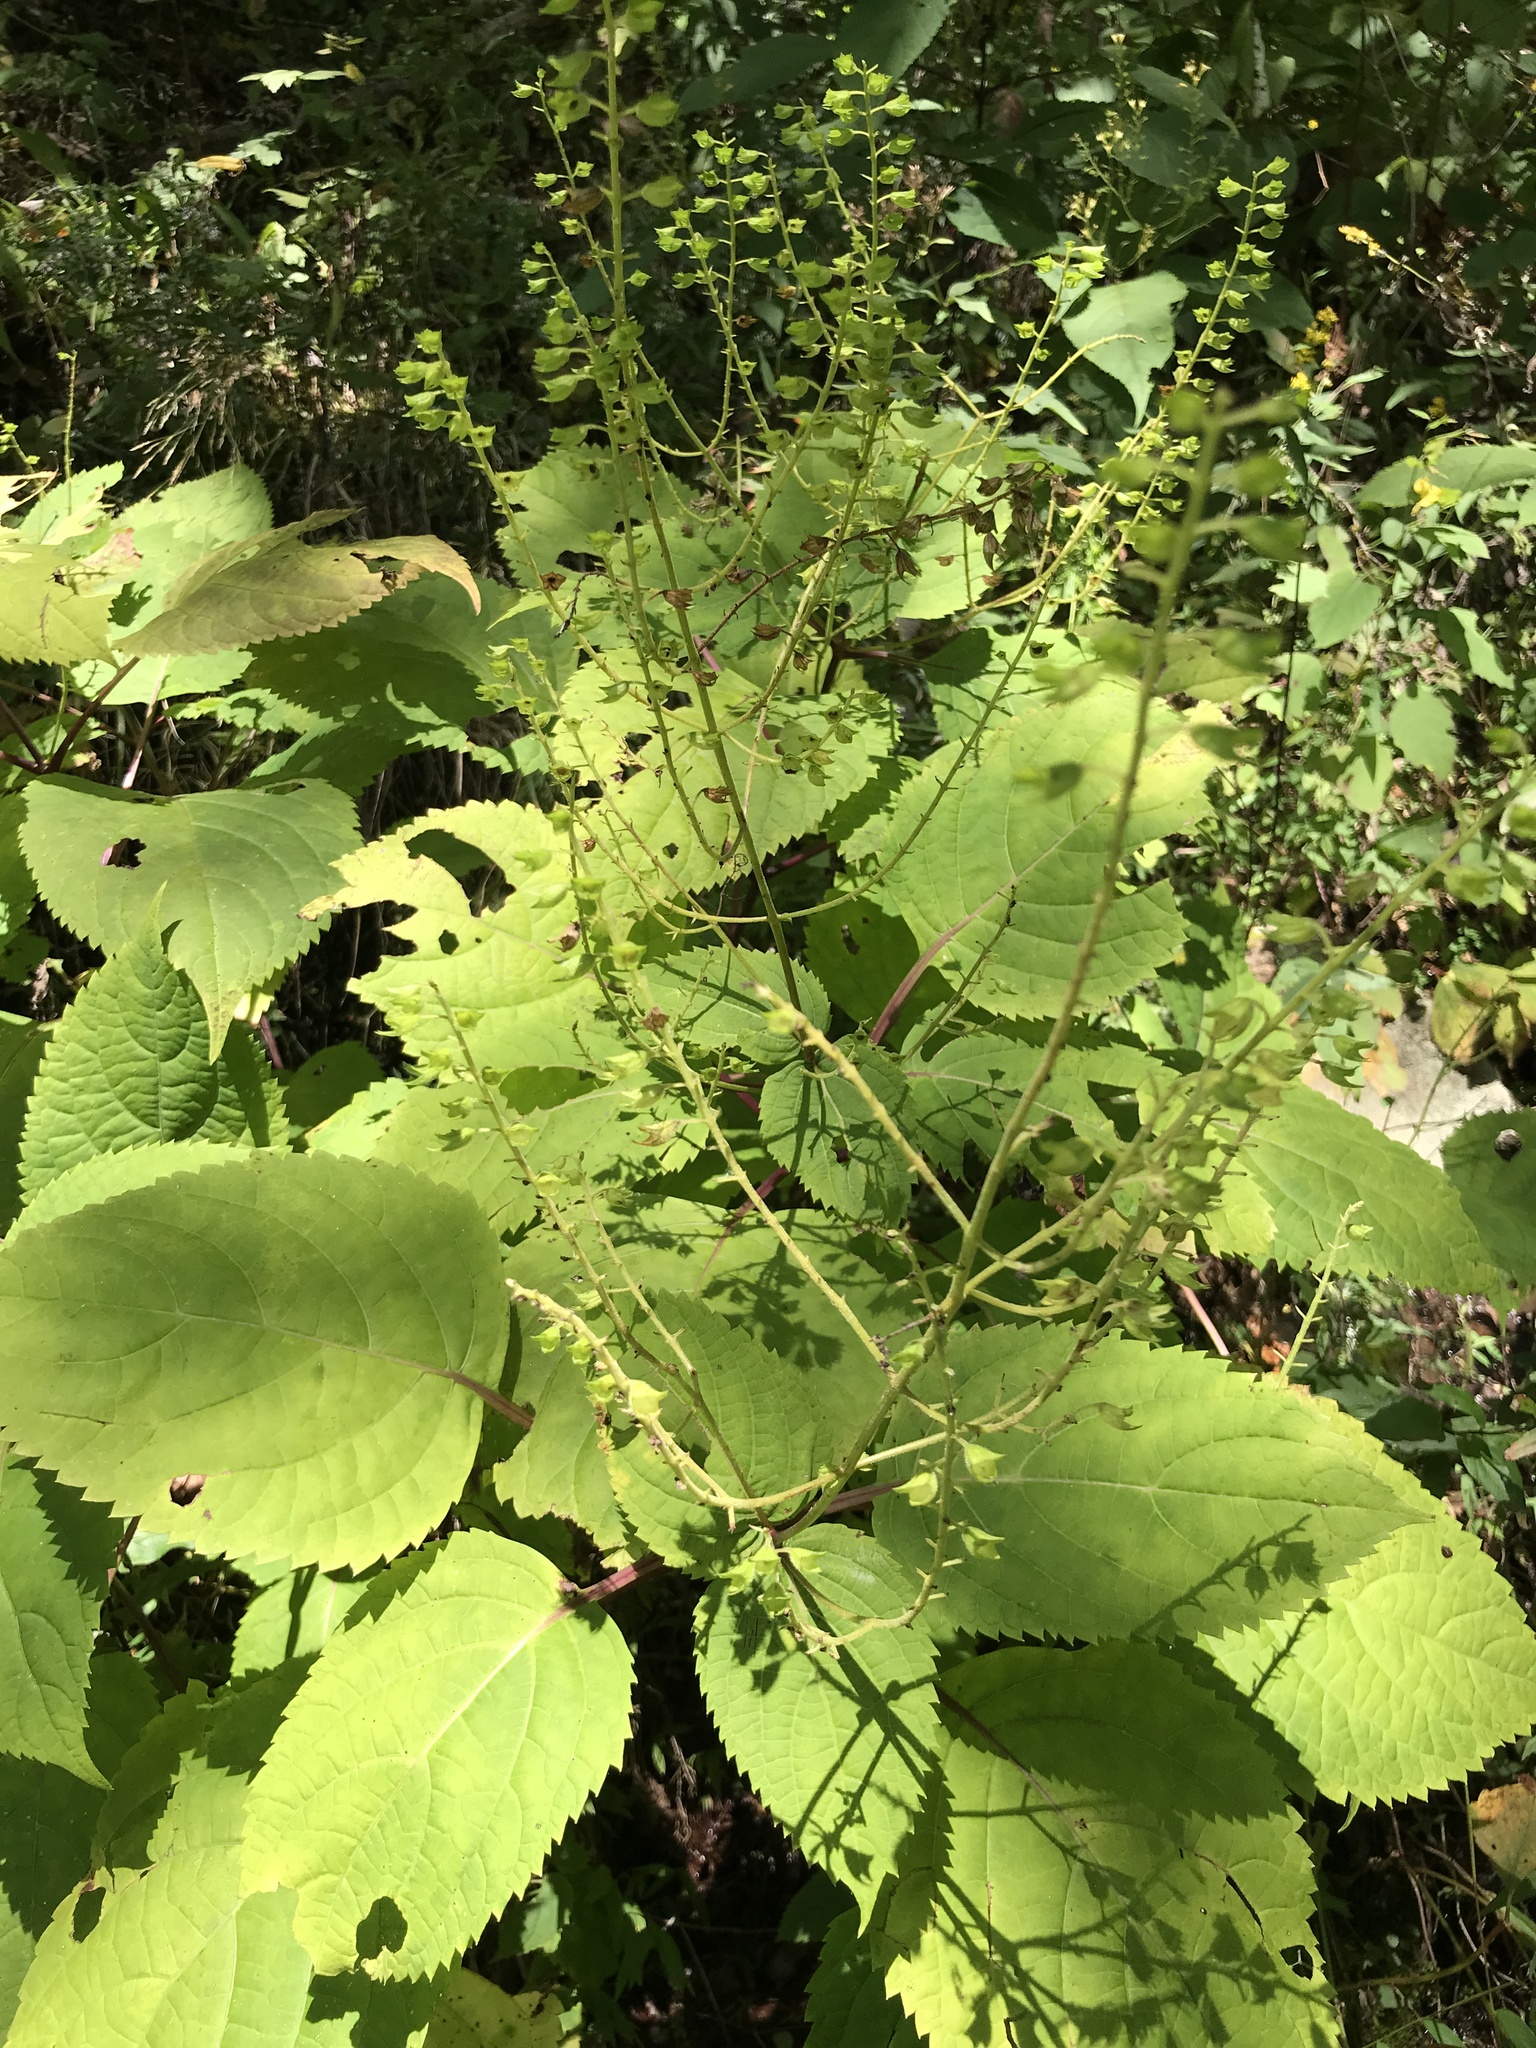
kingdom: Plantae
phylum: Tracheophyta
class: Magnoliopsida
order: Lamiales
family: Lamiaceae
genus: Collinsonia
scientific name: Collinsonia canadensis
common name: Northern horsebalm
